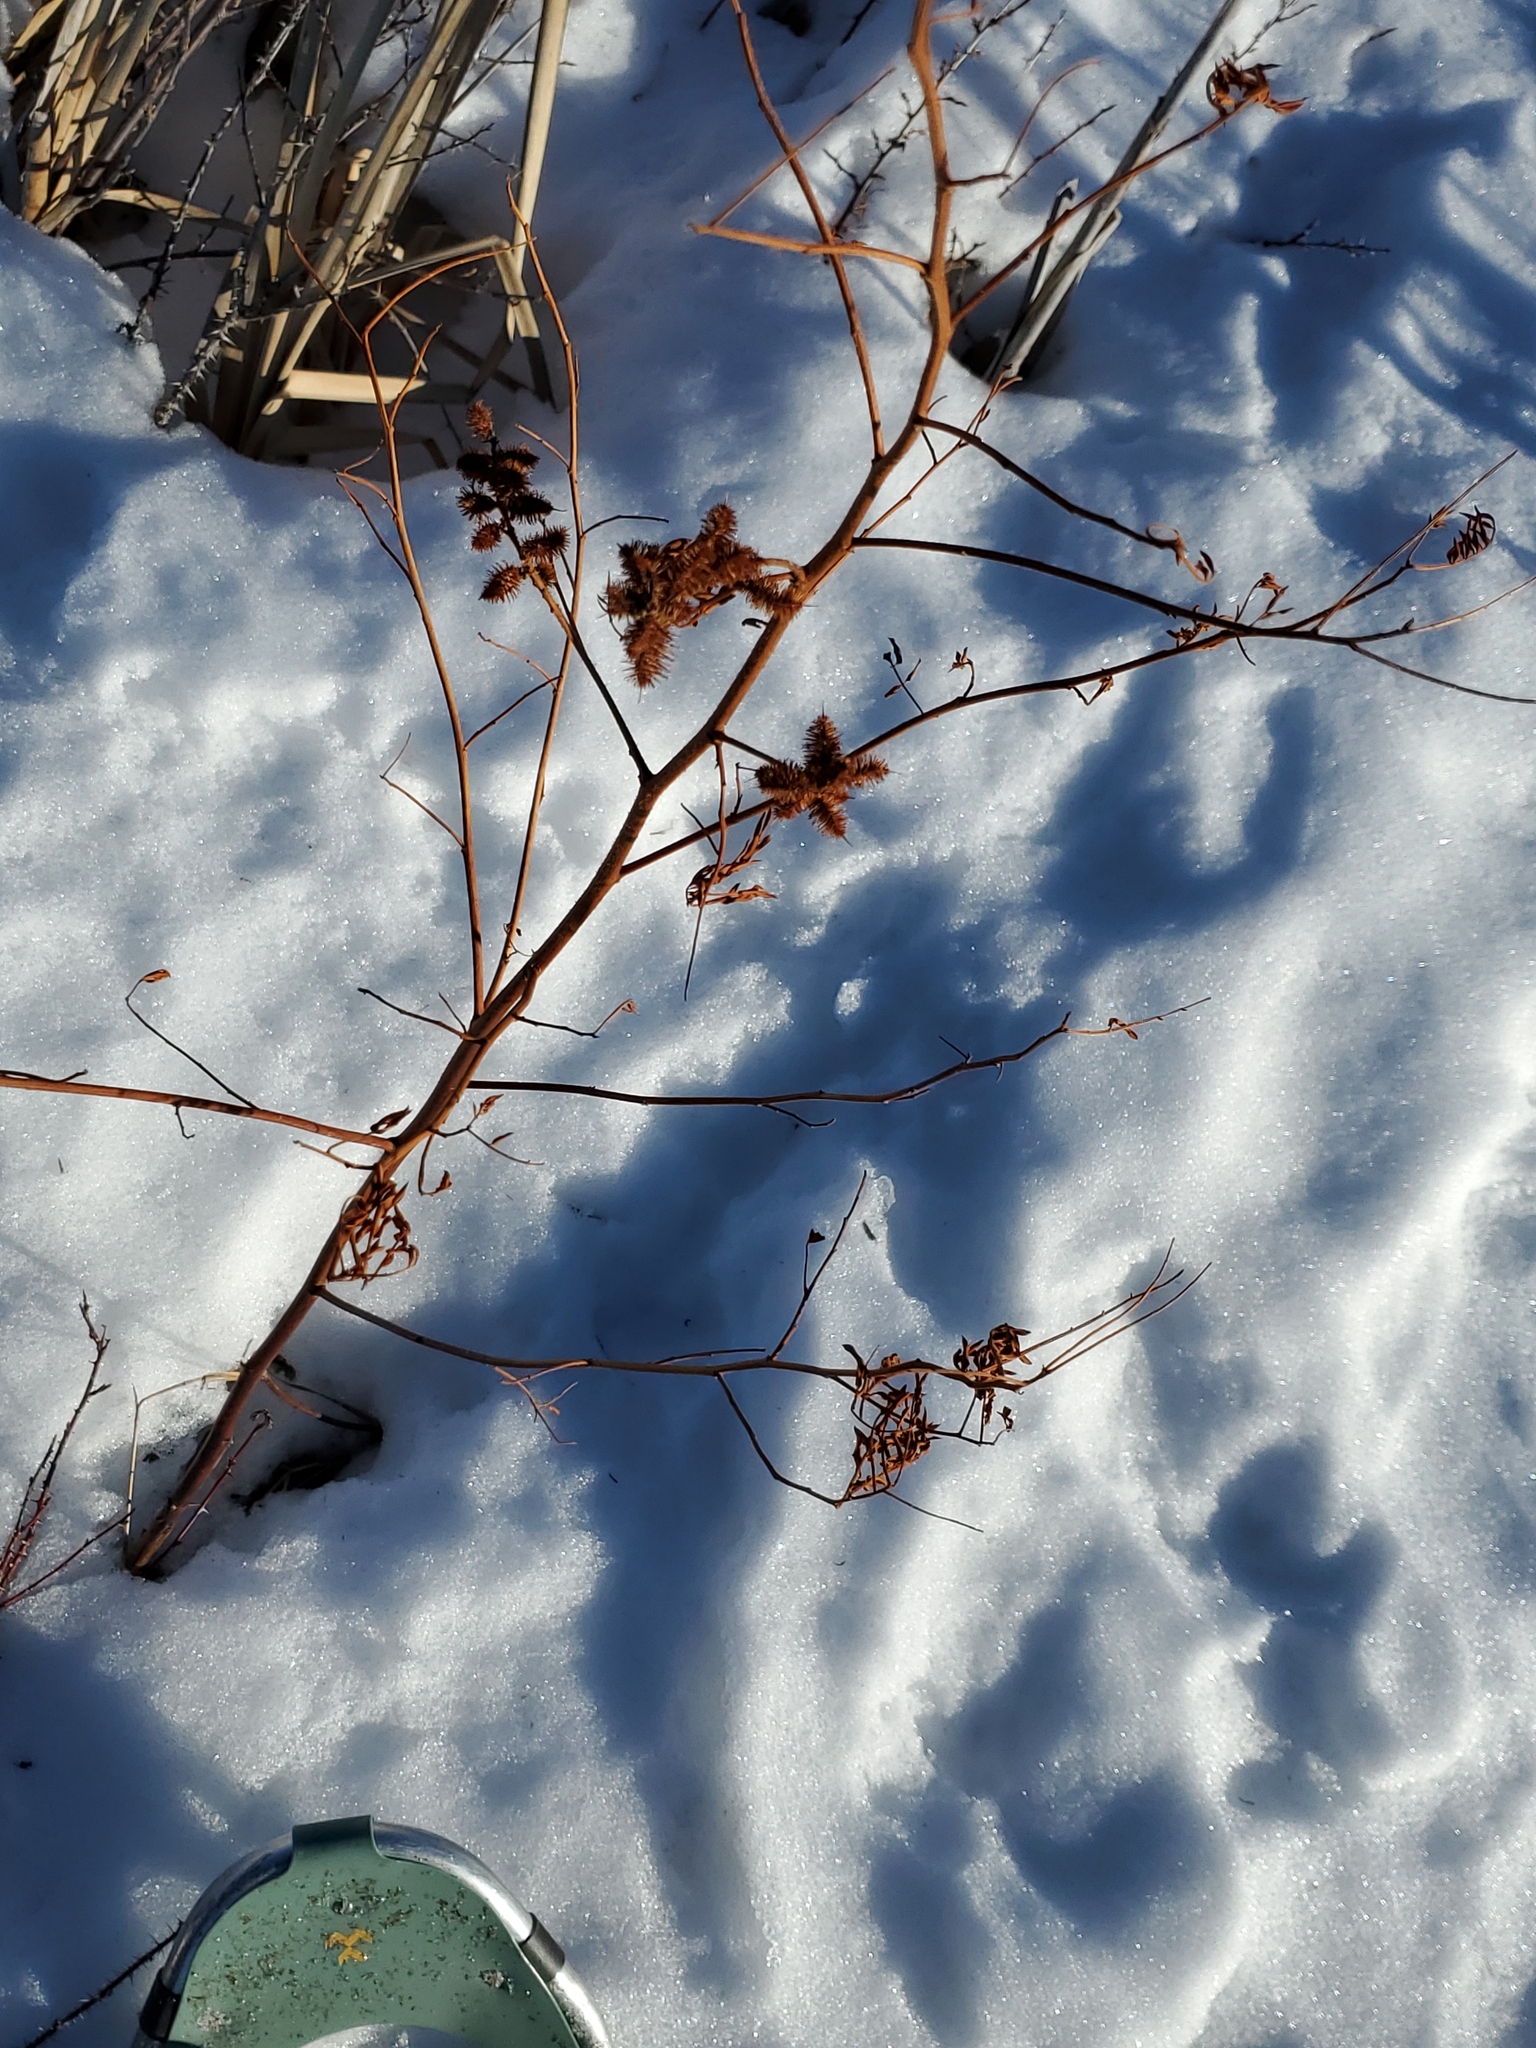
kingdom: Plantae
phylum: Tracheophyta
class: Magnoliopsida
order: Fabales
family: Fabaceae
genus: Glycyrrhiza
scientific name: Glycyrrhiza lepidota
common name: American liquorice
